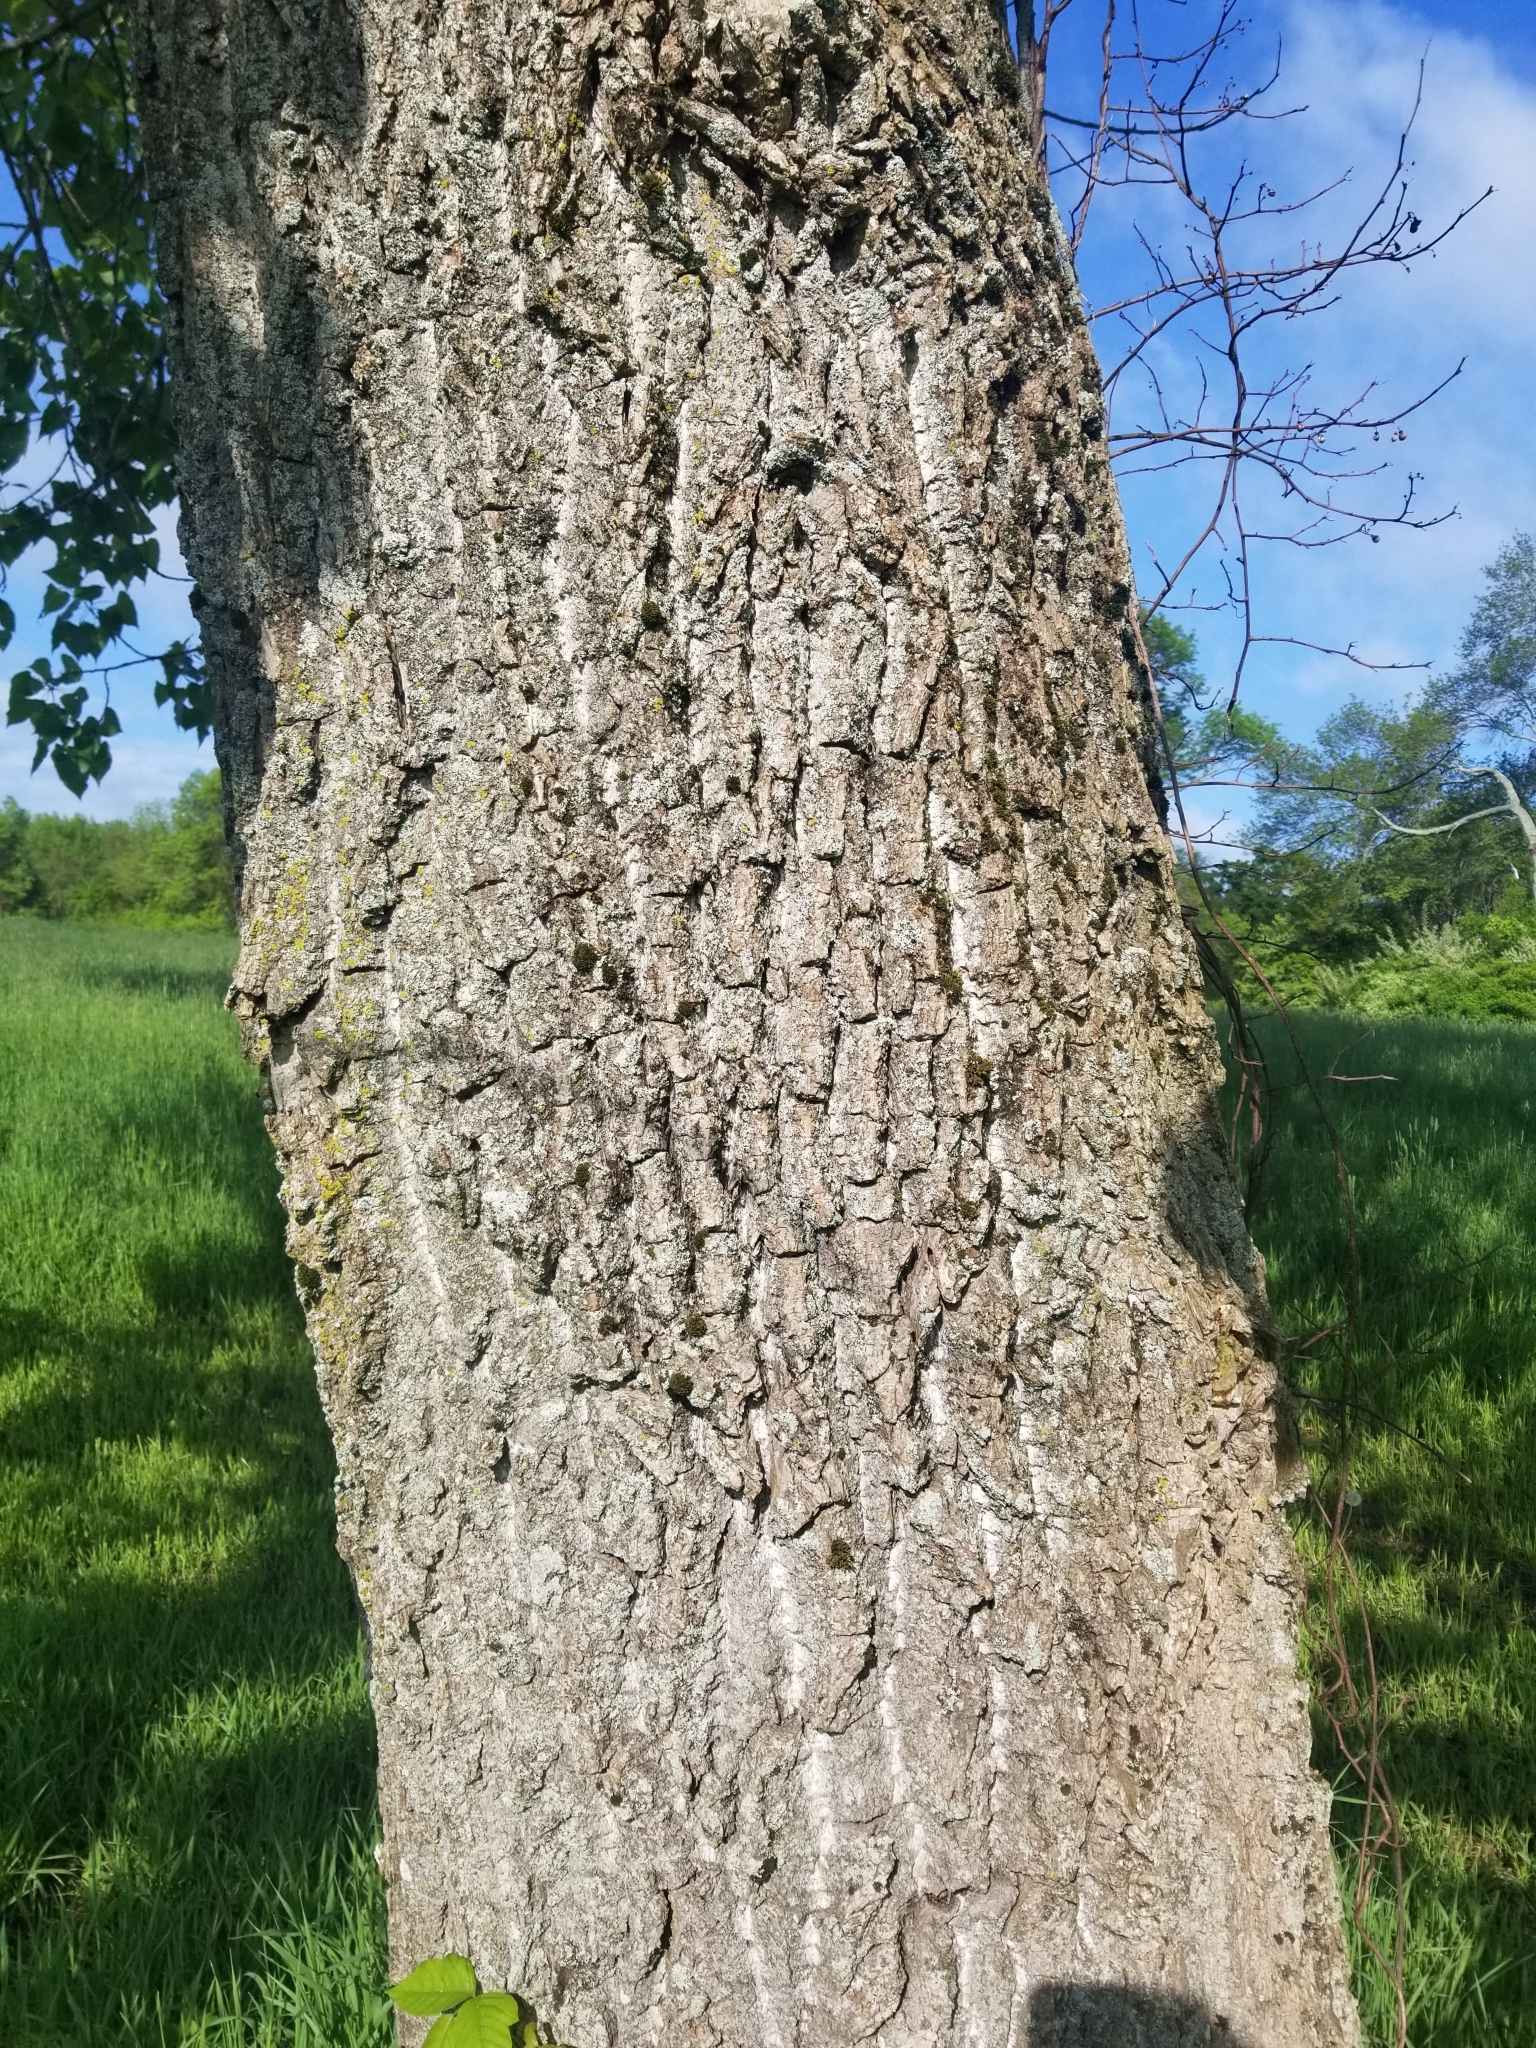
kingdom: Plantae
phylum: Tracheophyta
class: Magnoliopsida
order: Malpighiales
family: Salicaceae
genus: Populus
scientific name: Populus deltoides
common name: Eastern cottonwood
